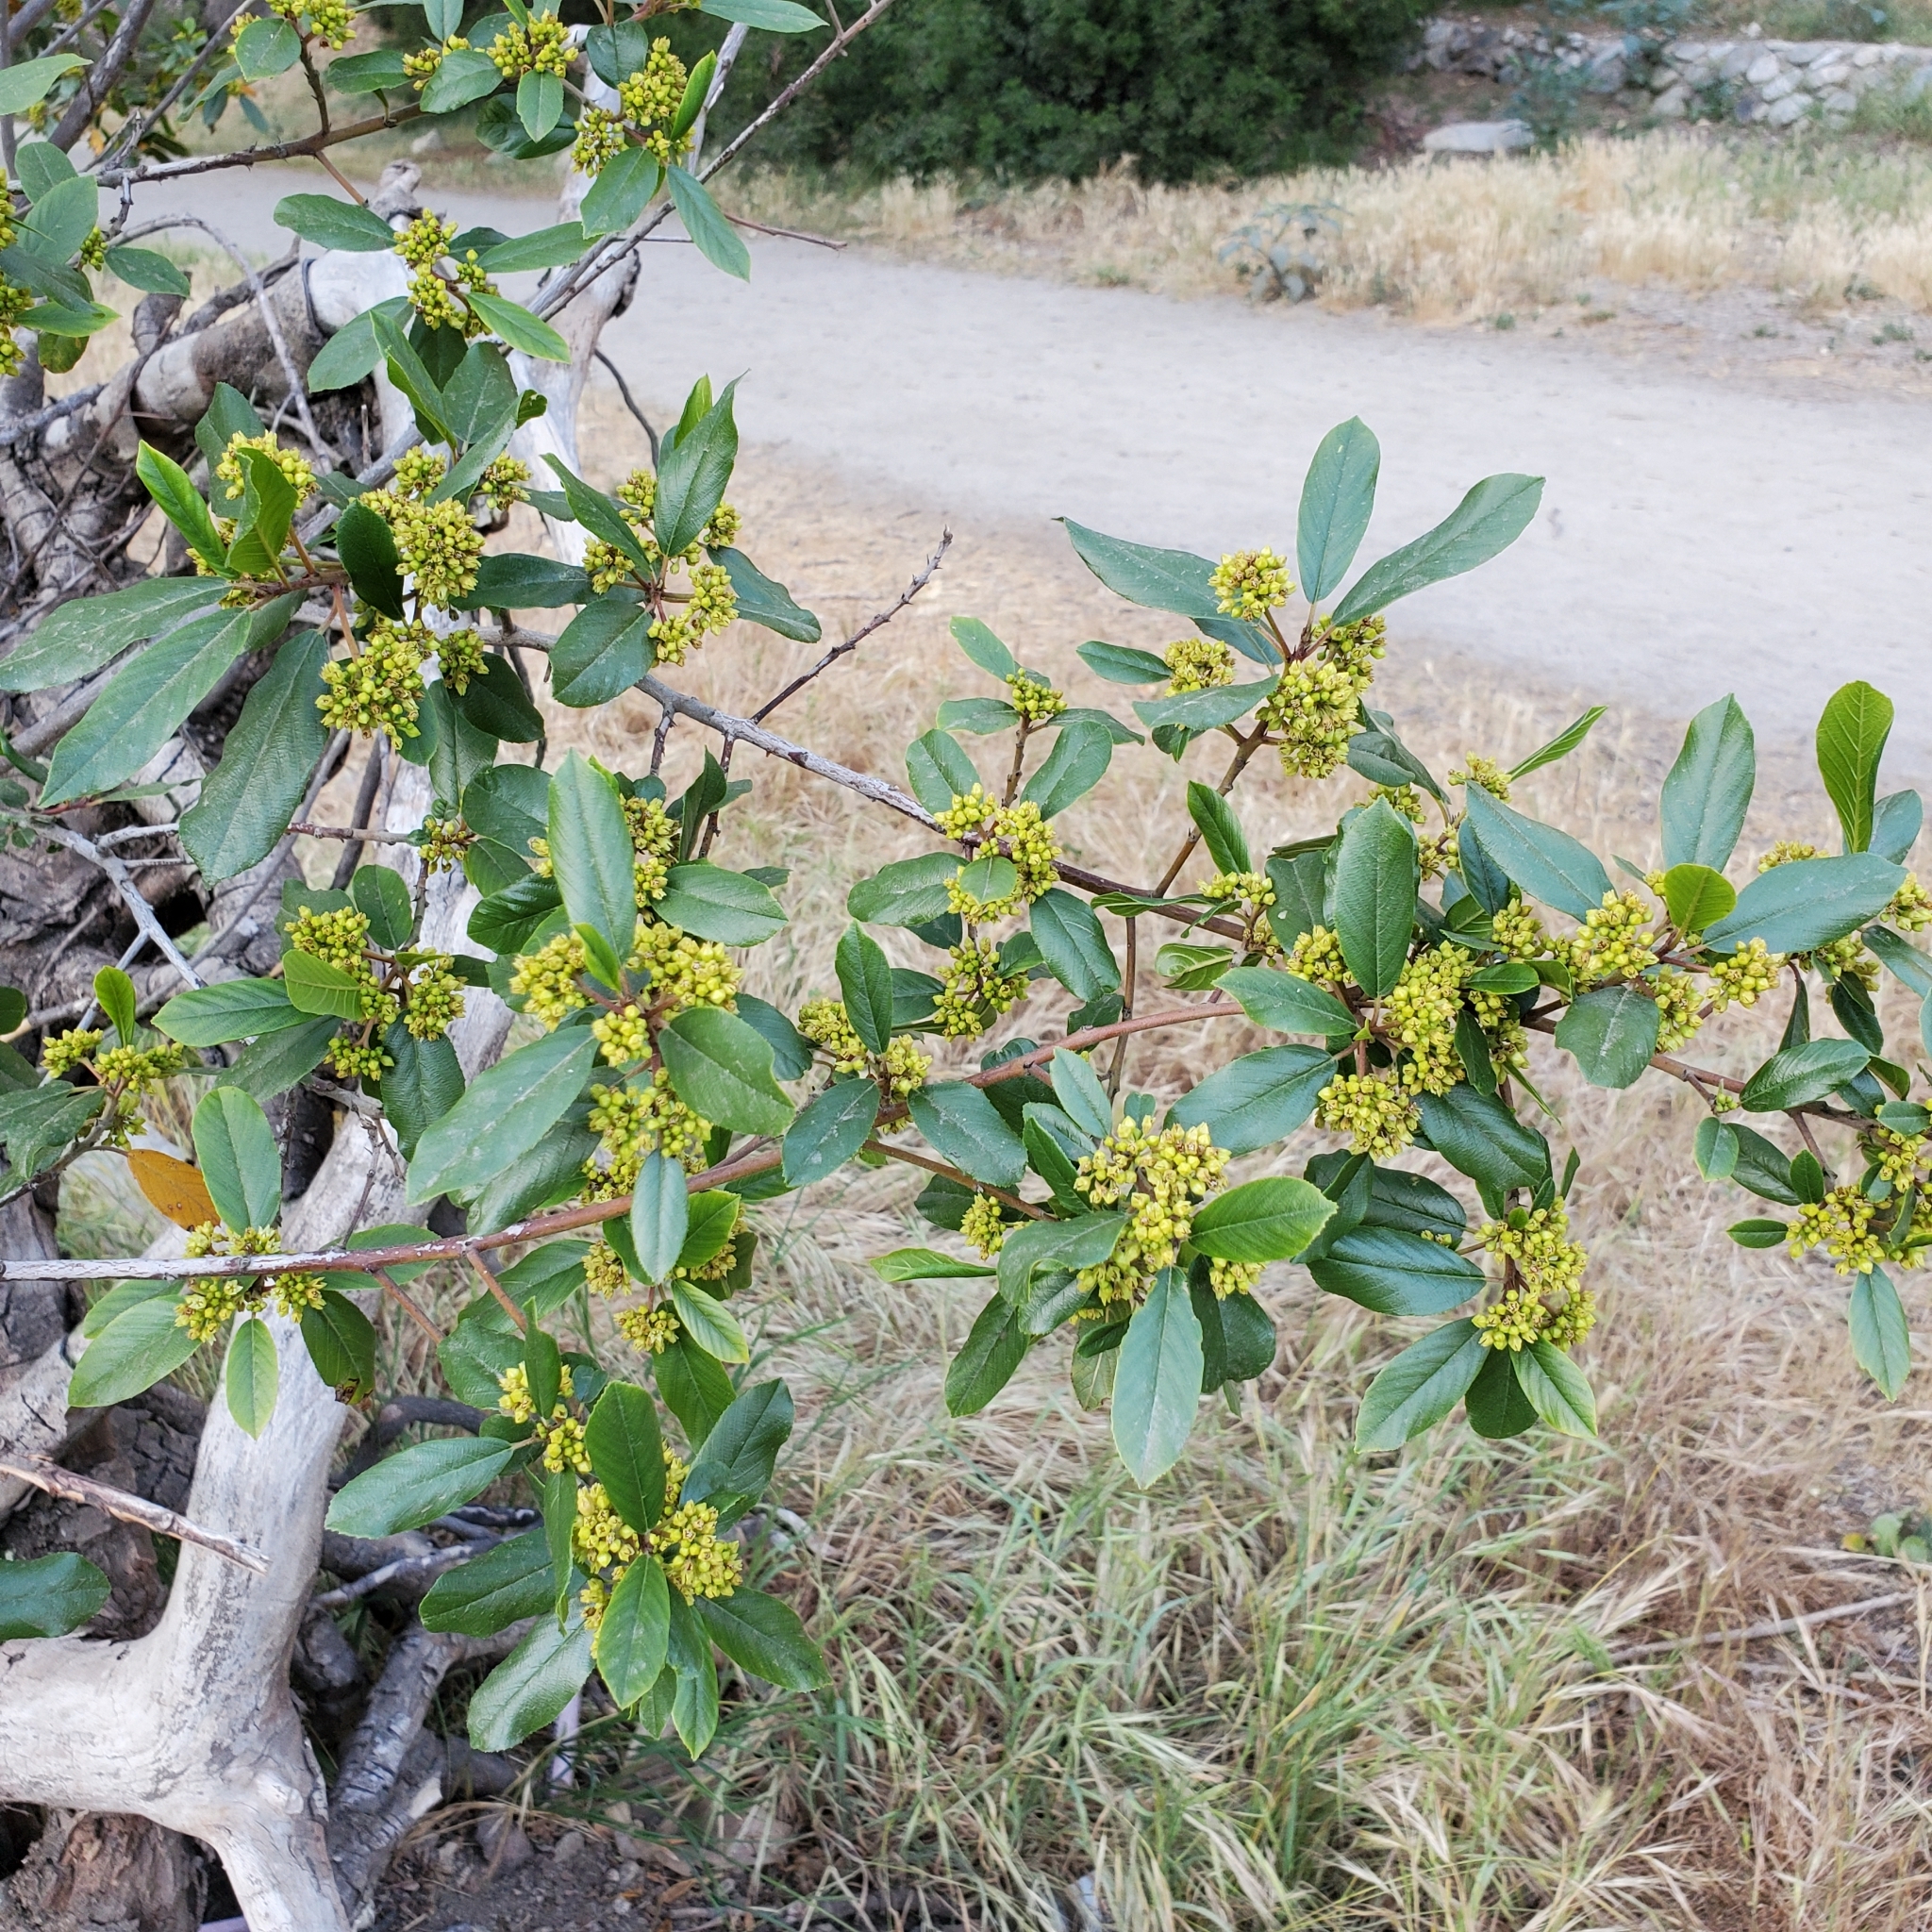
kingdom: Plantae
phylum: Tracheophyta
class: Magnoliopsida
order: Rosales
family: Rhamnaceae
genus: Frangula
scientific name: Frangula californica
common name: California buckthorn
